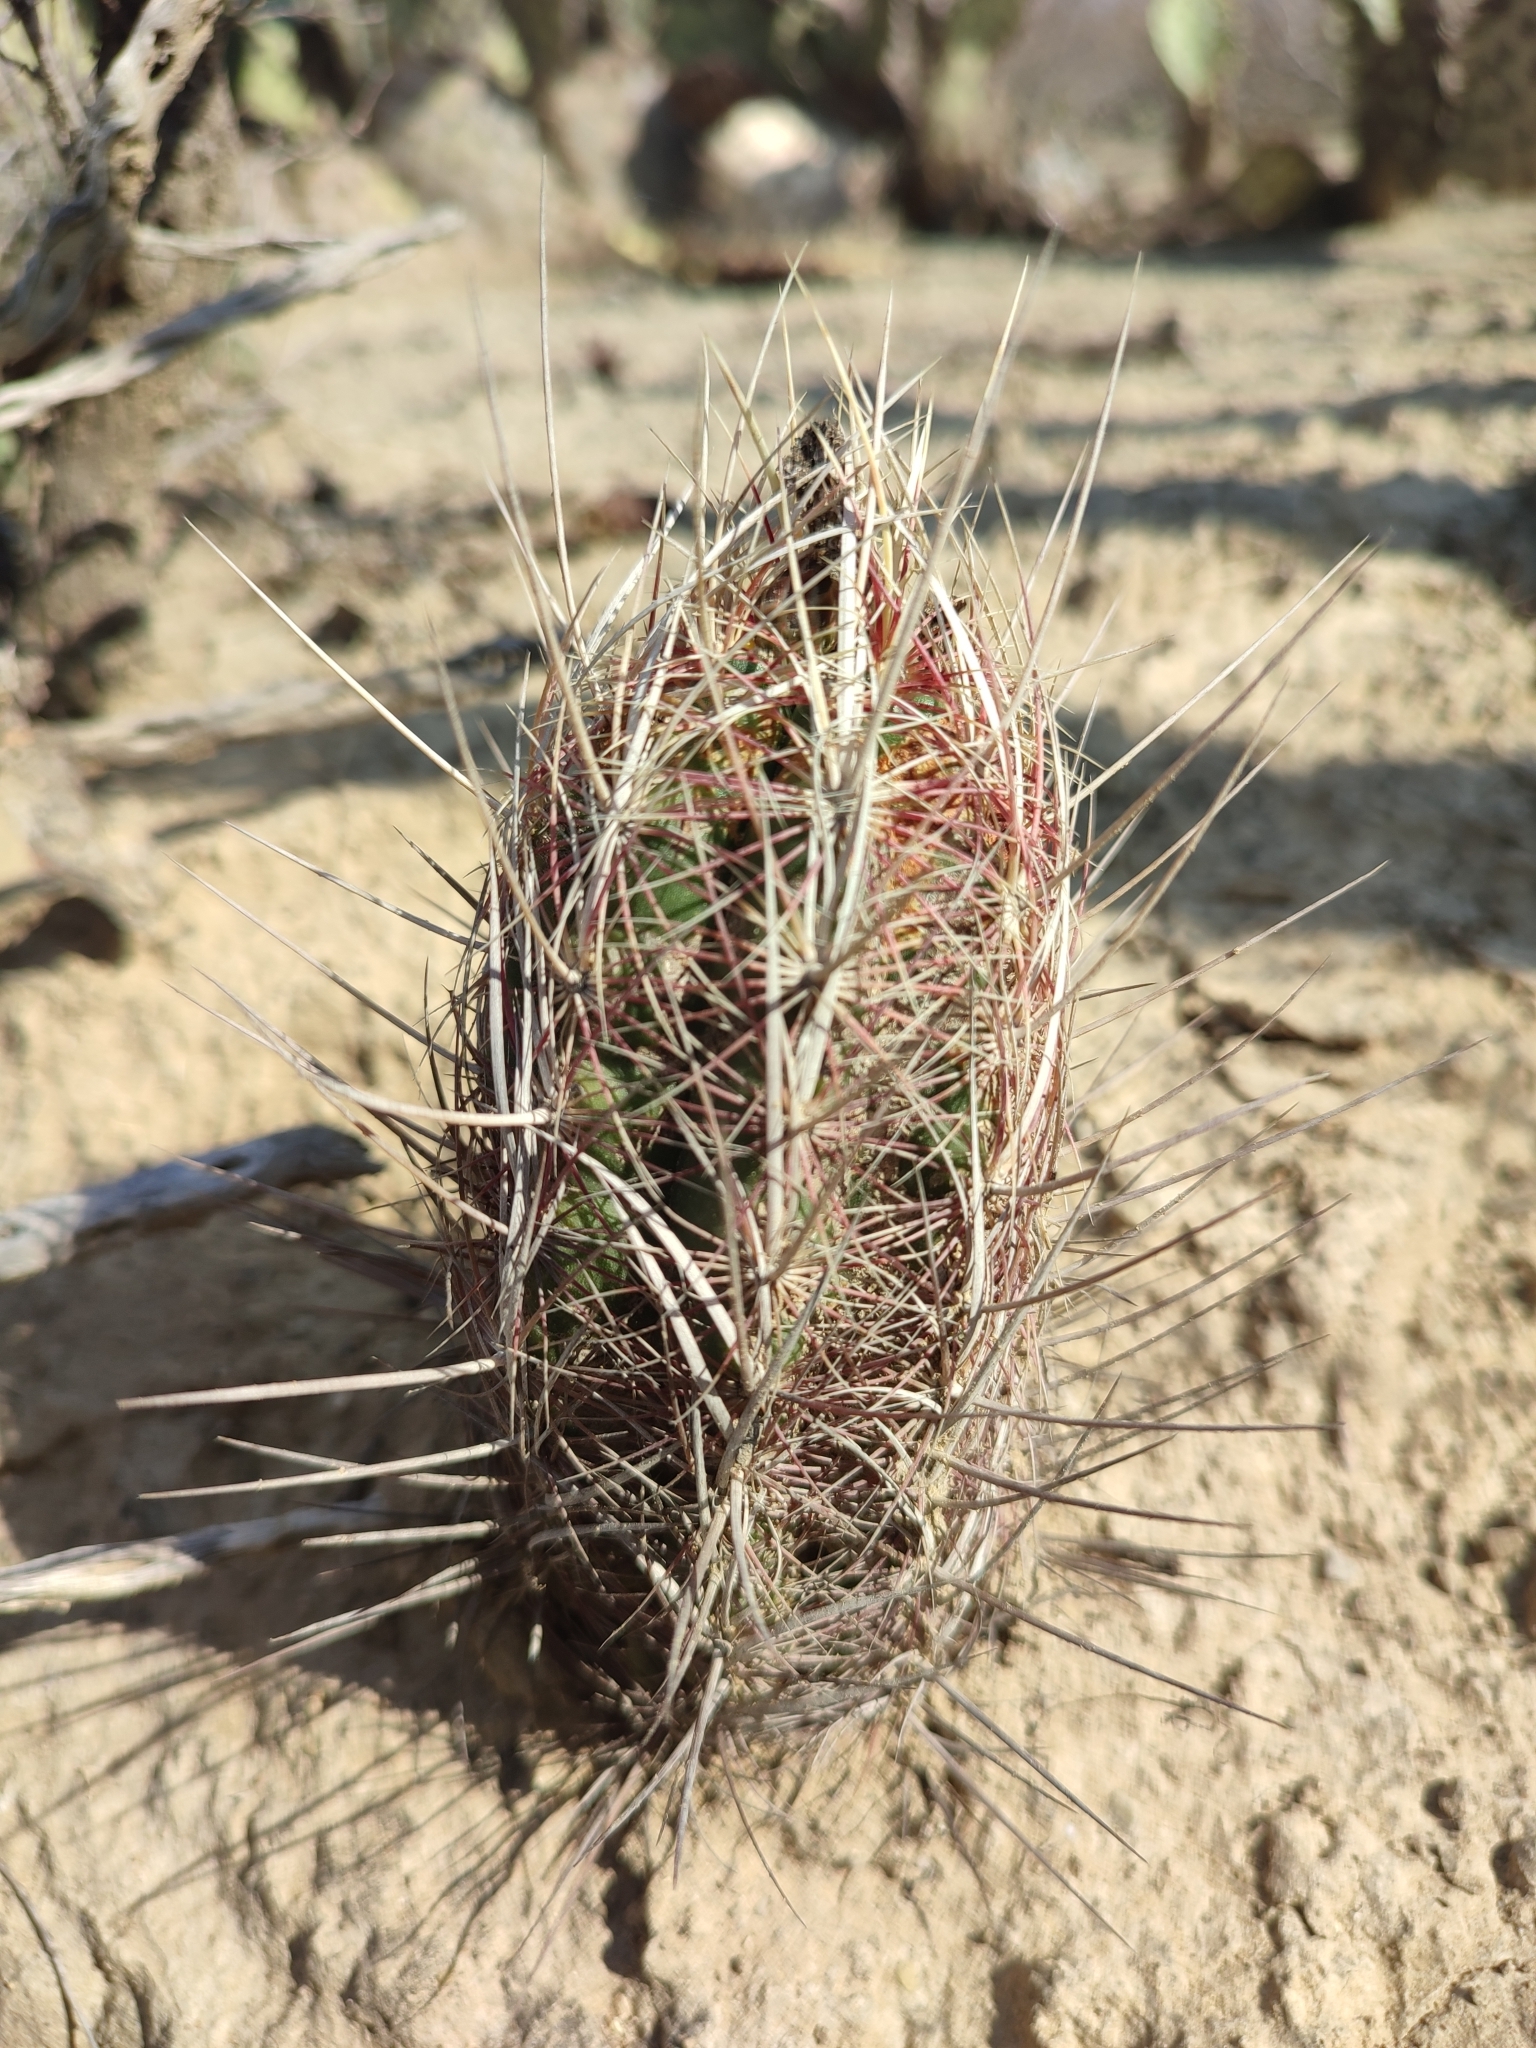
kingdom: Plantae
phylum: Tracheophyta
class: Magnoliopsida
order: Caryophyllales
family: Cactaceae
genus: Thelocactus
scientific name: Thelocactus bicolor
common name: Glory of texas
